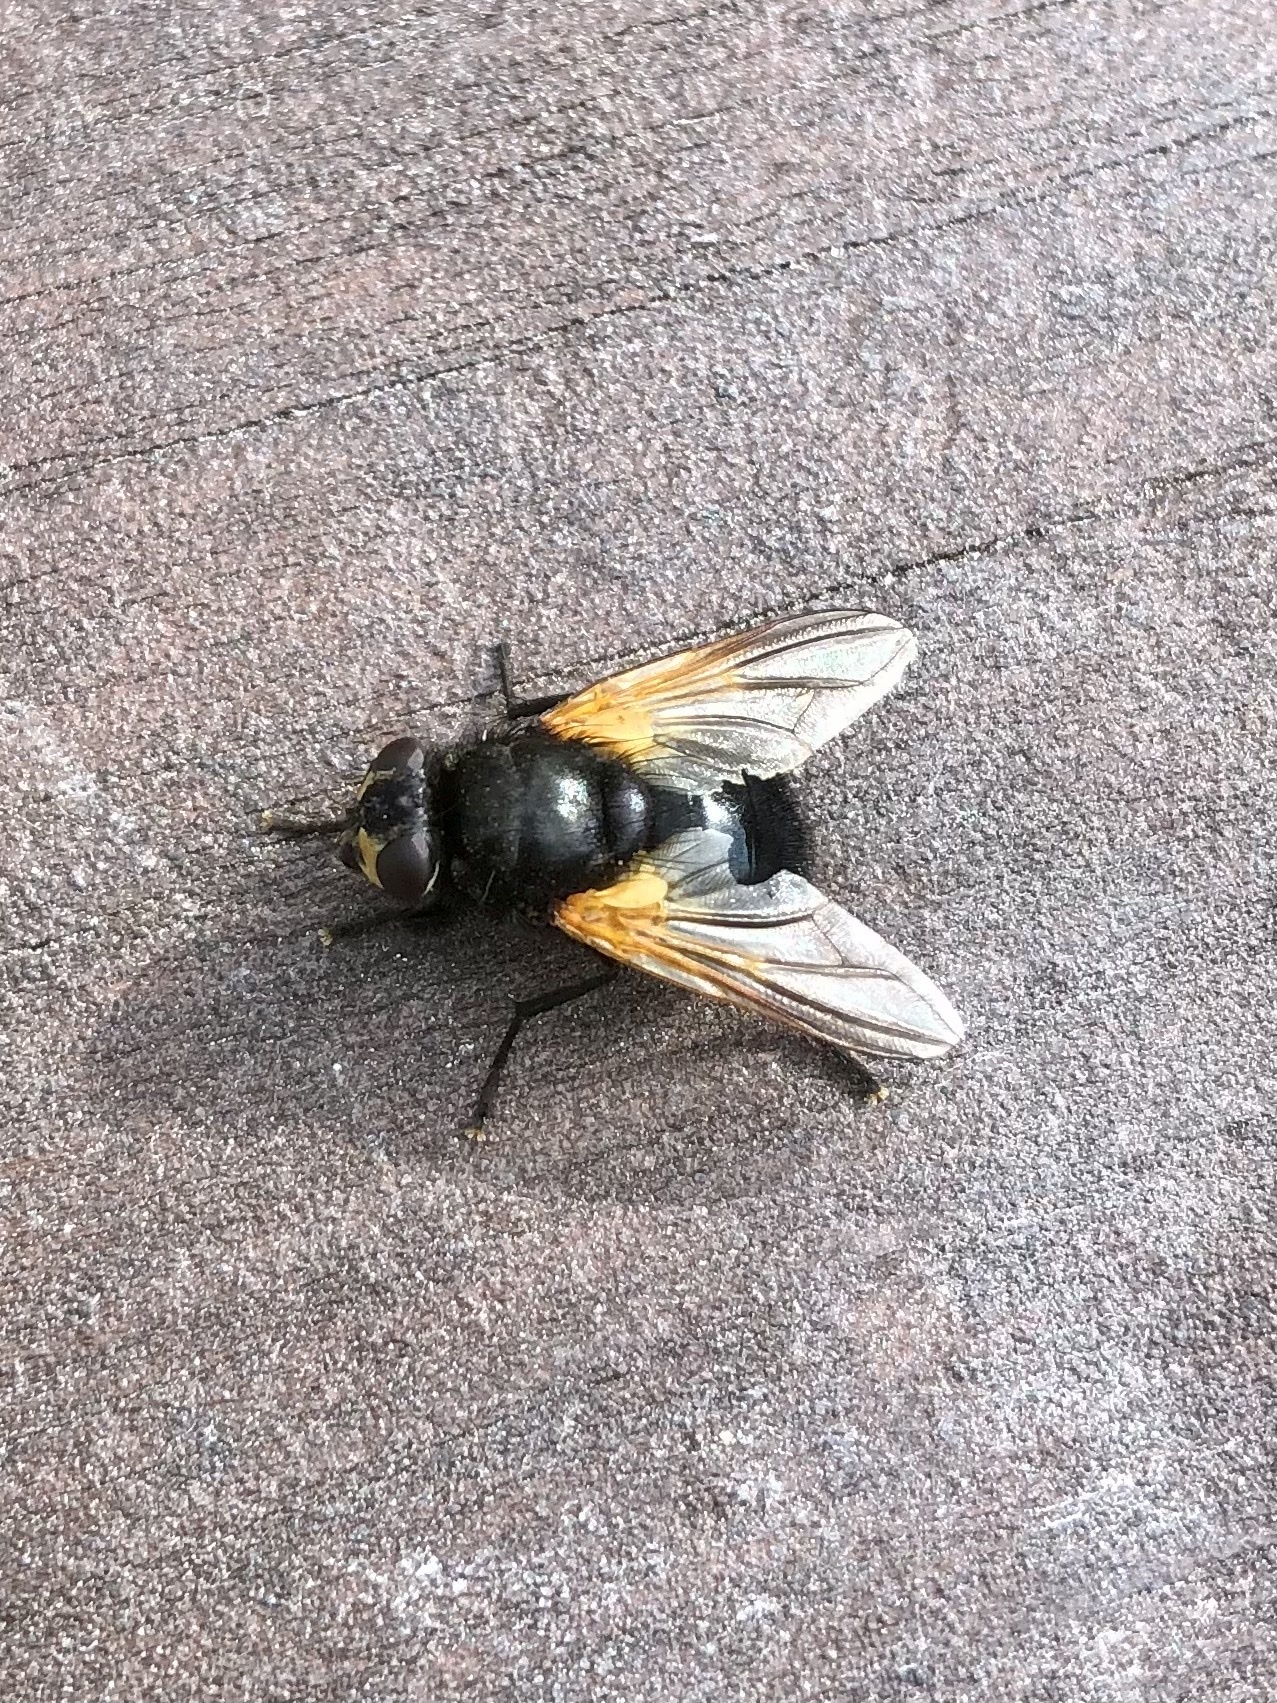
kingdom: Animalia
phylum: Arthropoda
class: Insecta
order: Diptera
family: Muscidae
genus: Mesembrina
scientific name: Mesembrina meridiana
